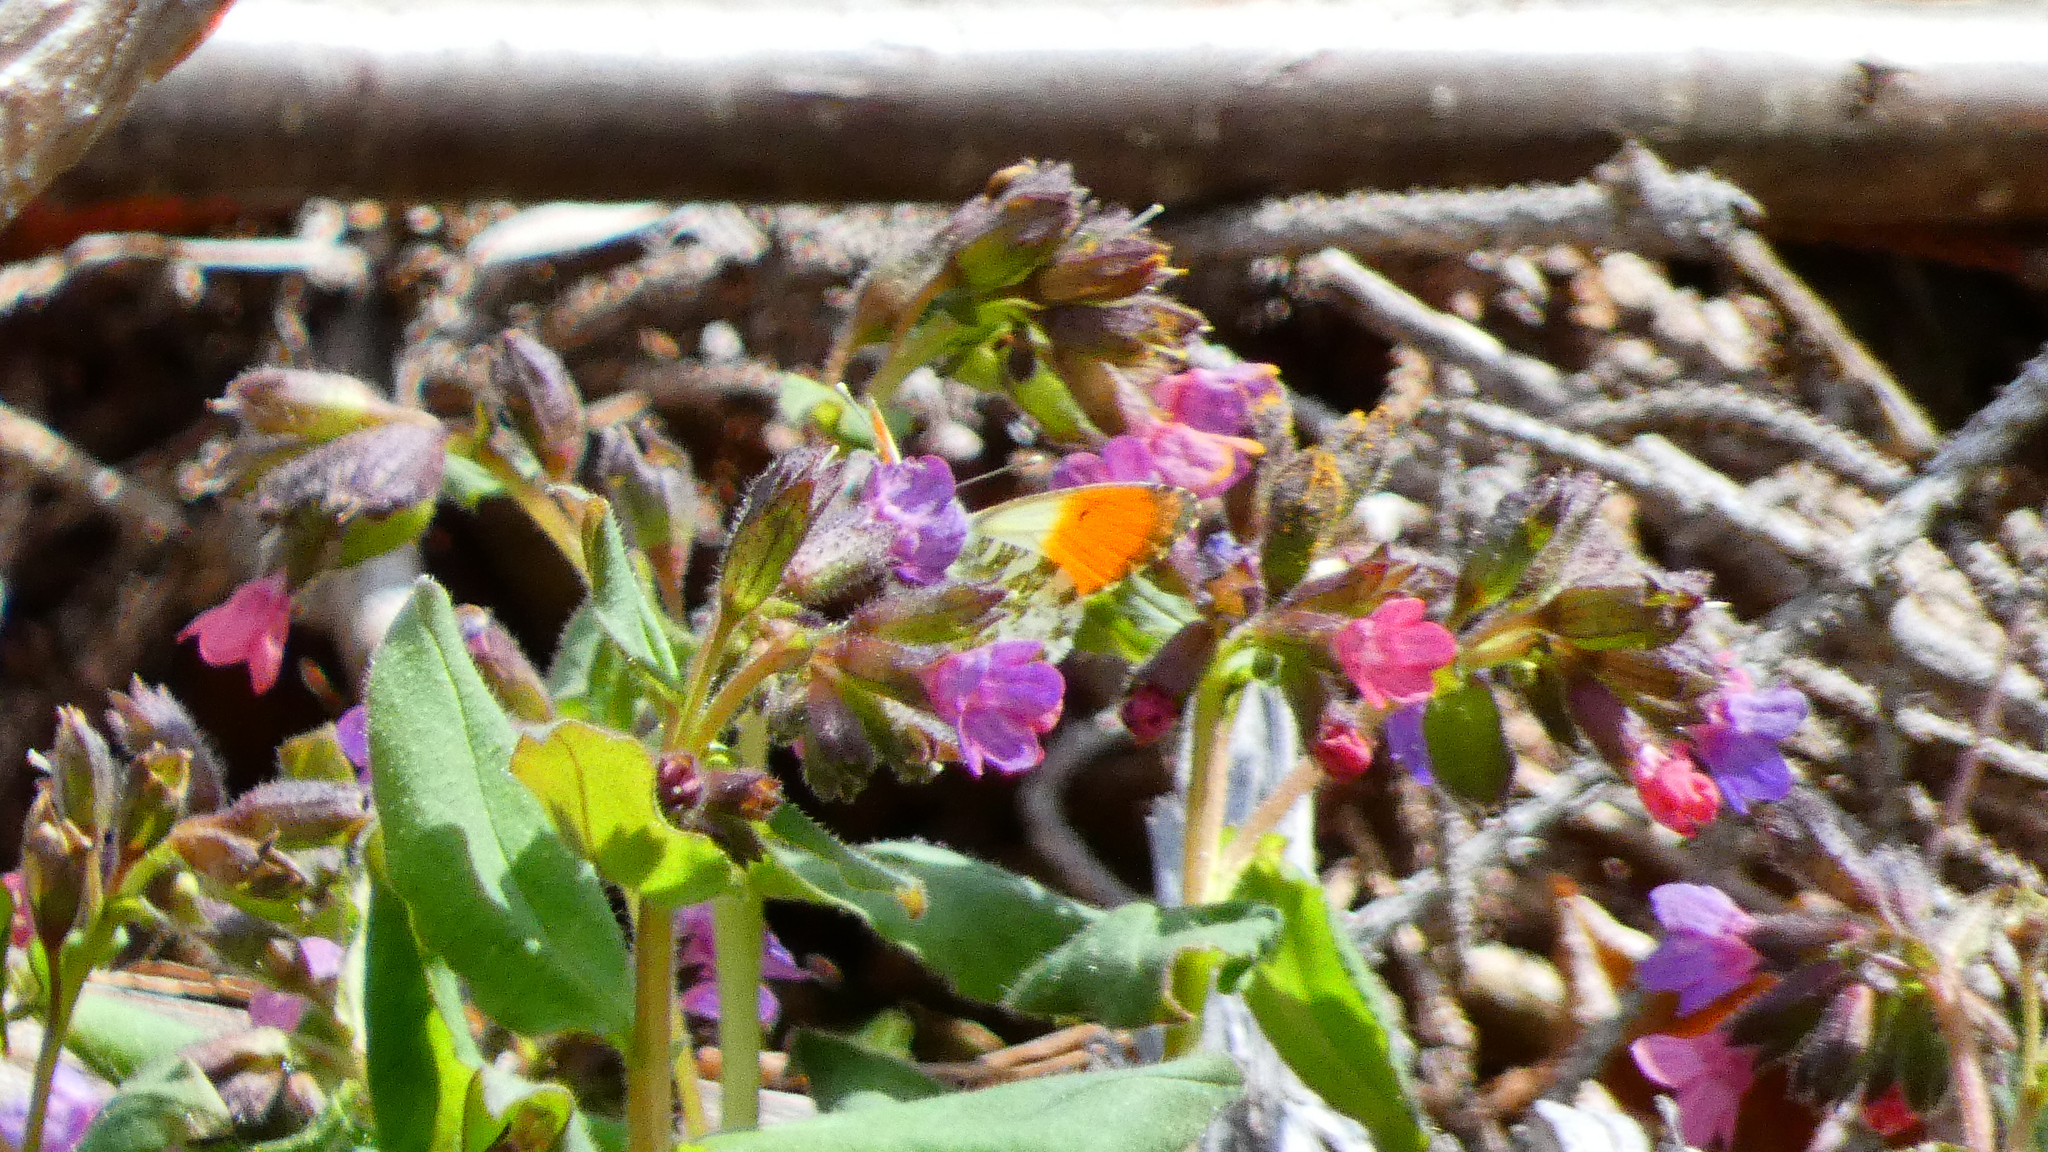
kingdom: Animalia
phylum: Arthropoda
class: Insecta
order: Lepidoptera
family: Pieridae
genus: Anthocharis
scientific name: Anthocharis cardamines
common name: Orange-tip
